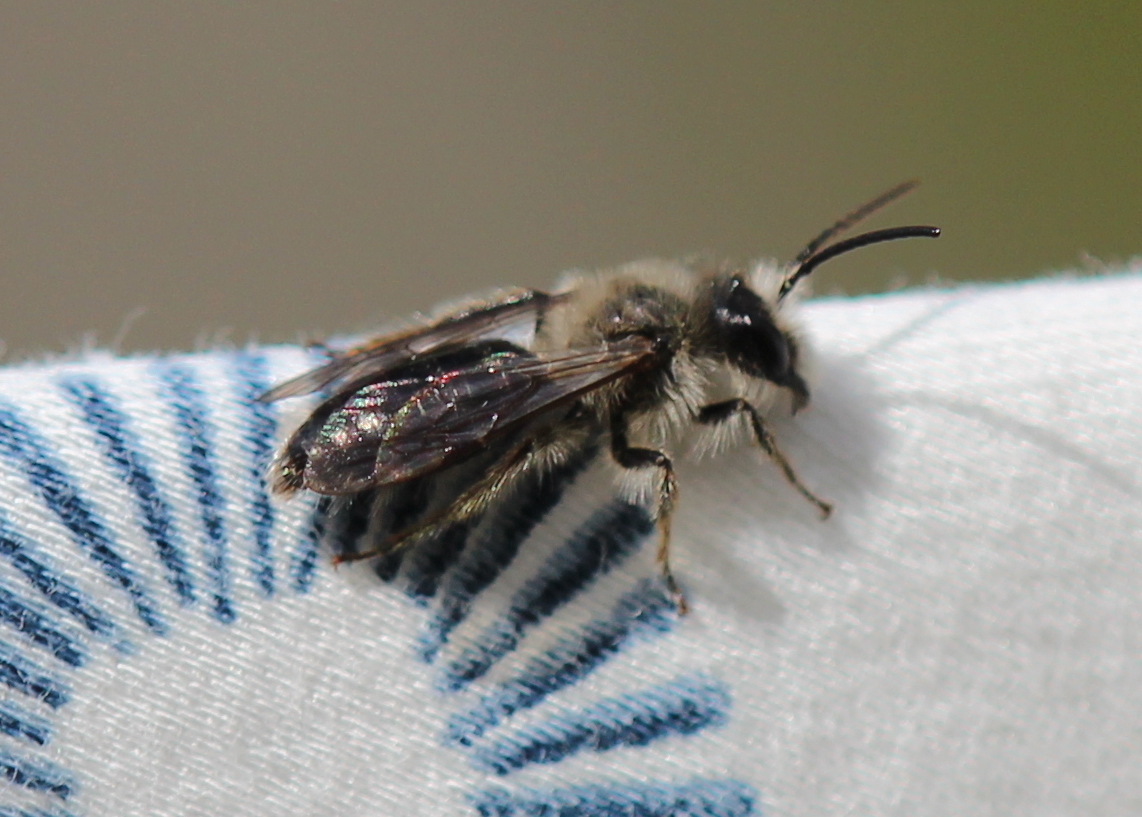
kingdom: Animalia
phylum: Arthropoda
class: Insecta
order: Hymenoptera
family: Andrenidae
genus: Andrena
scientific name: Andrena carlini
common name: Carlin's mining bee
